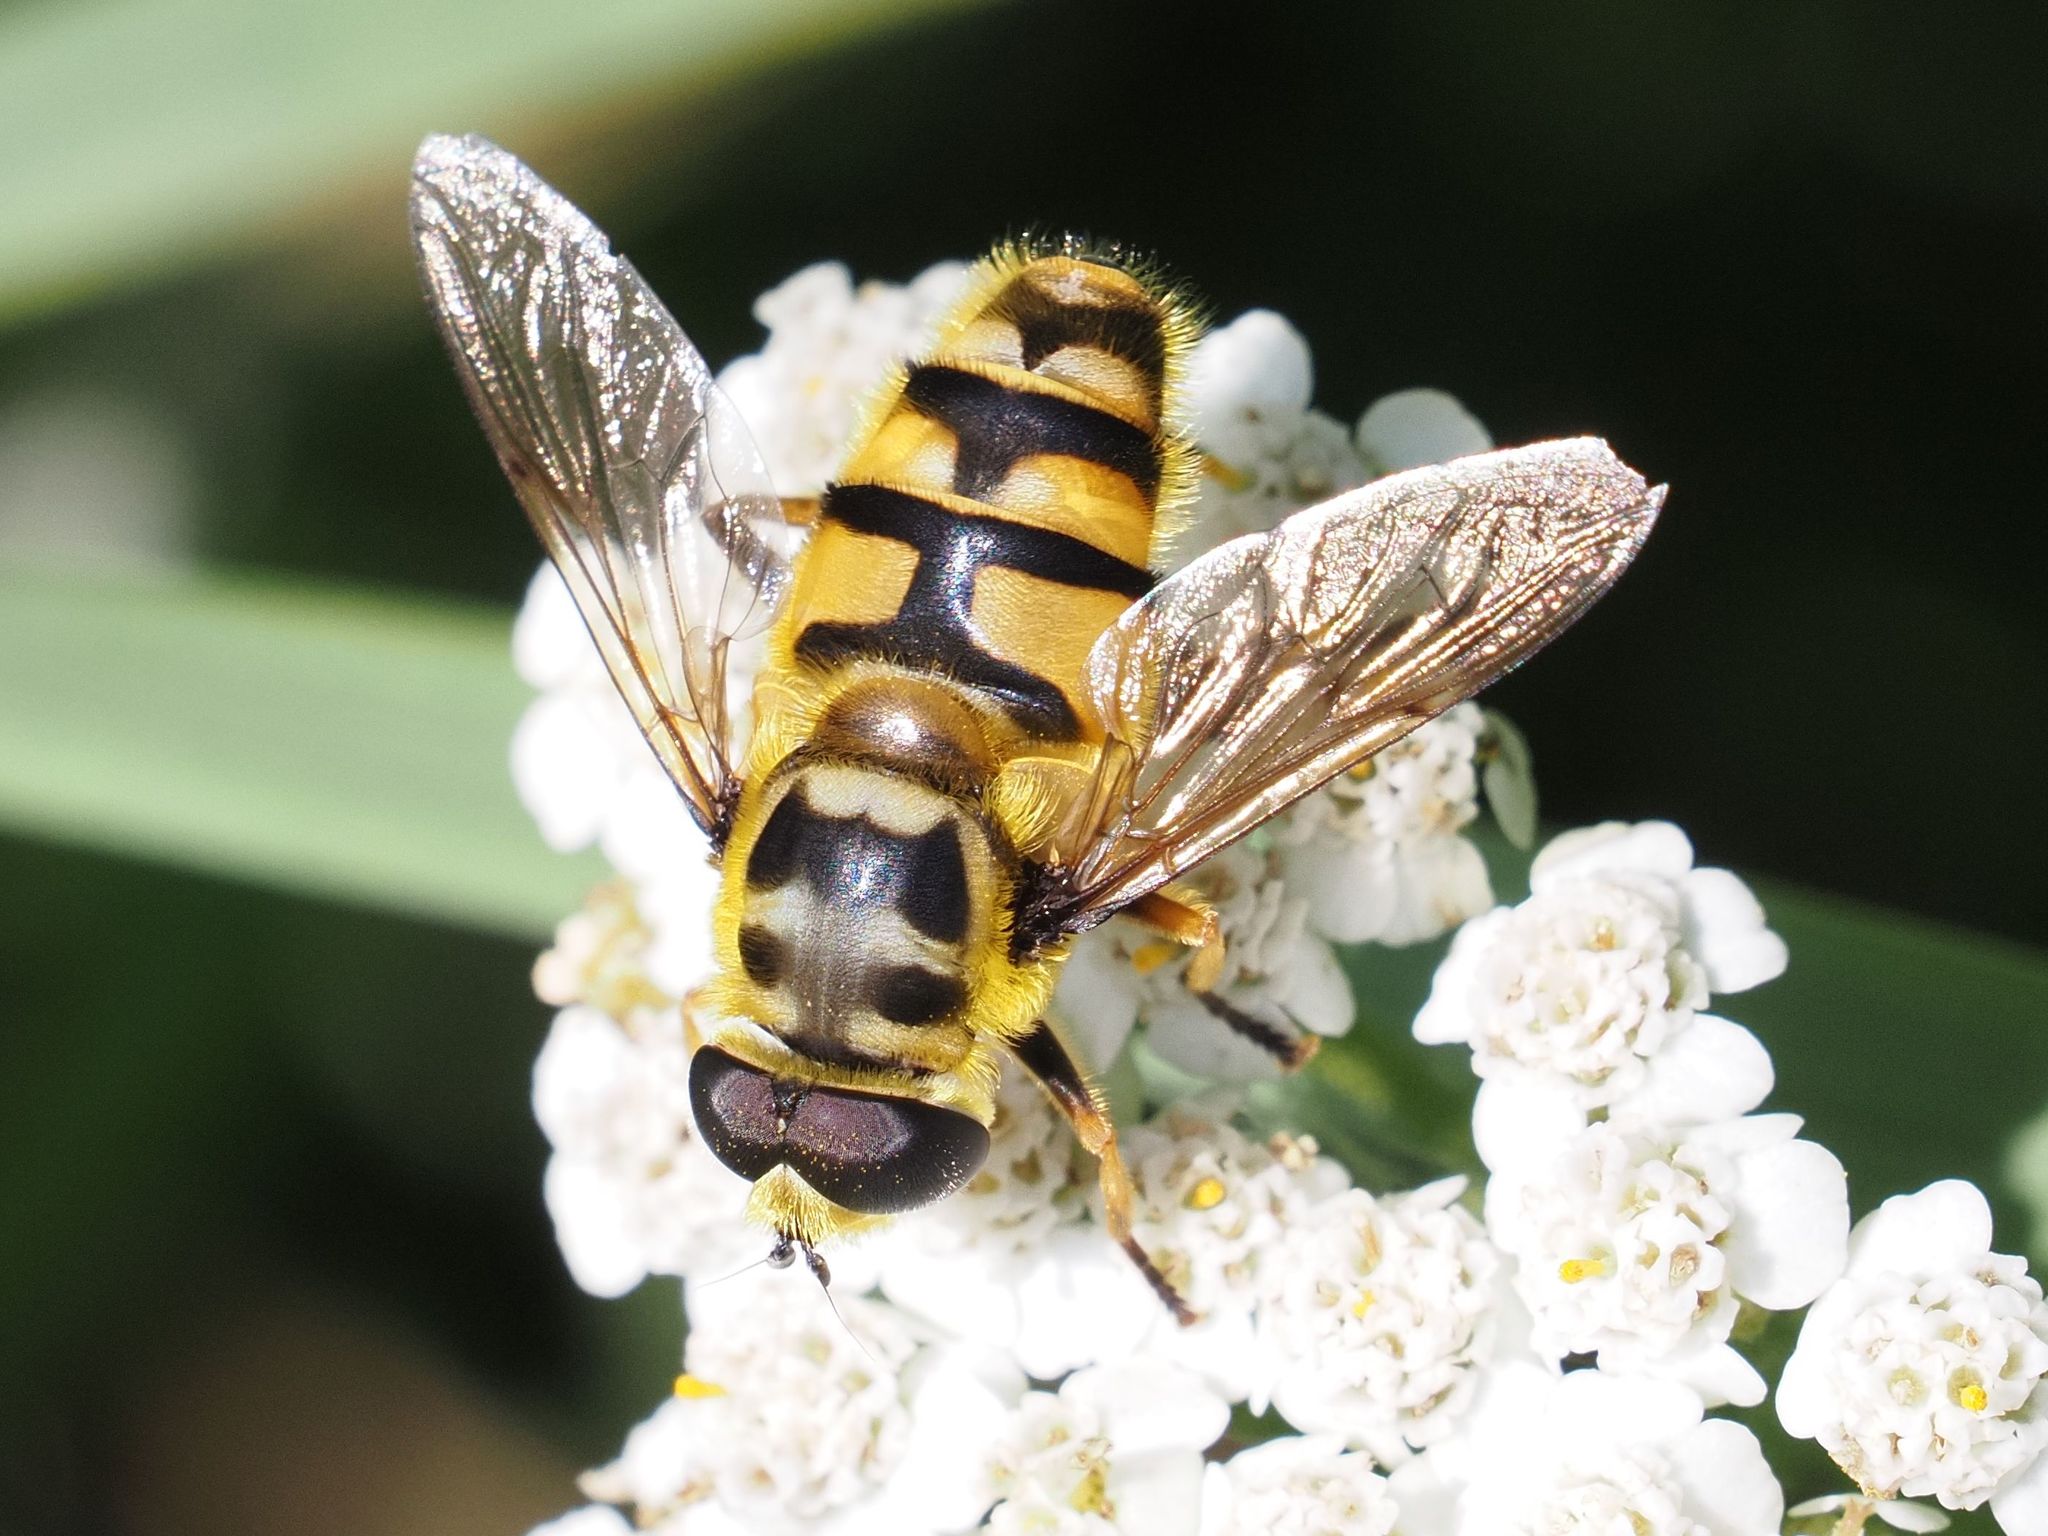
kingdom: Animalia
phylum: Arthropoda
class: Insecta
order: Diptera
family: Syrphidae
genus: Myathropa
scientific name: Myathropa florea
